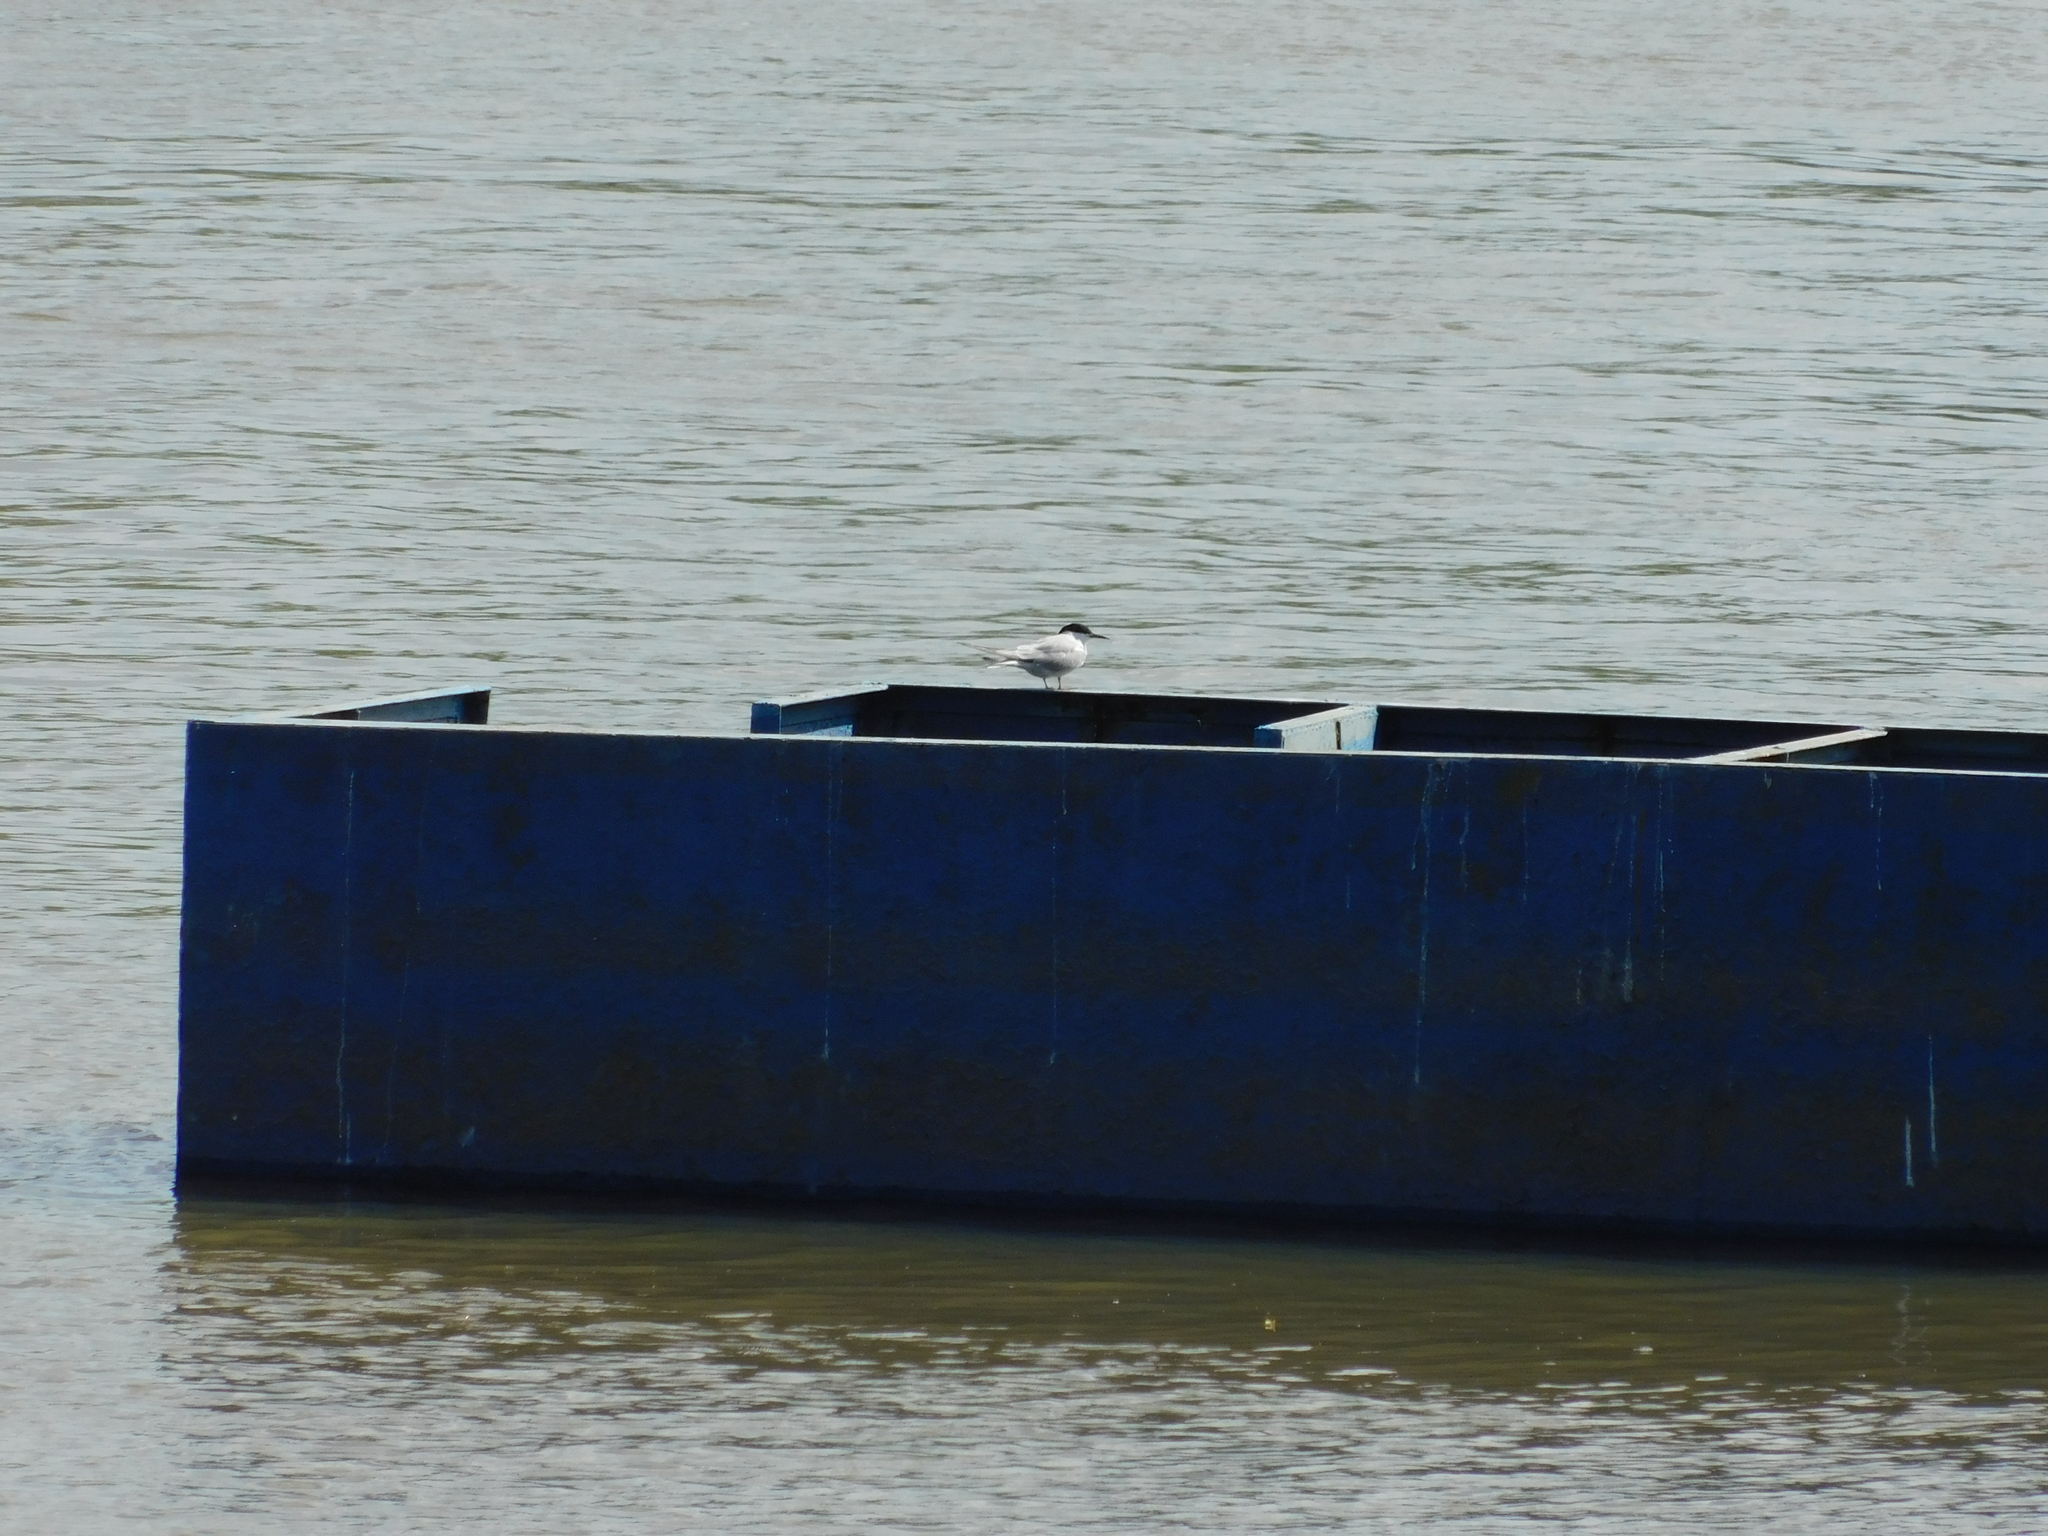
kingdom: Animalia
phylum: Chordata
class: Aves
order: Charadriiformes
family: Laridae
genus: Sterna
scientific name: Sterna hirundo
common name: Common tern
